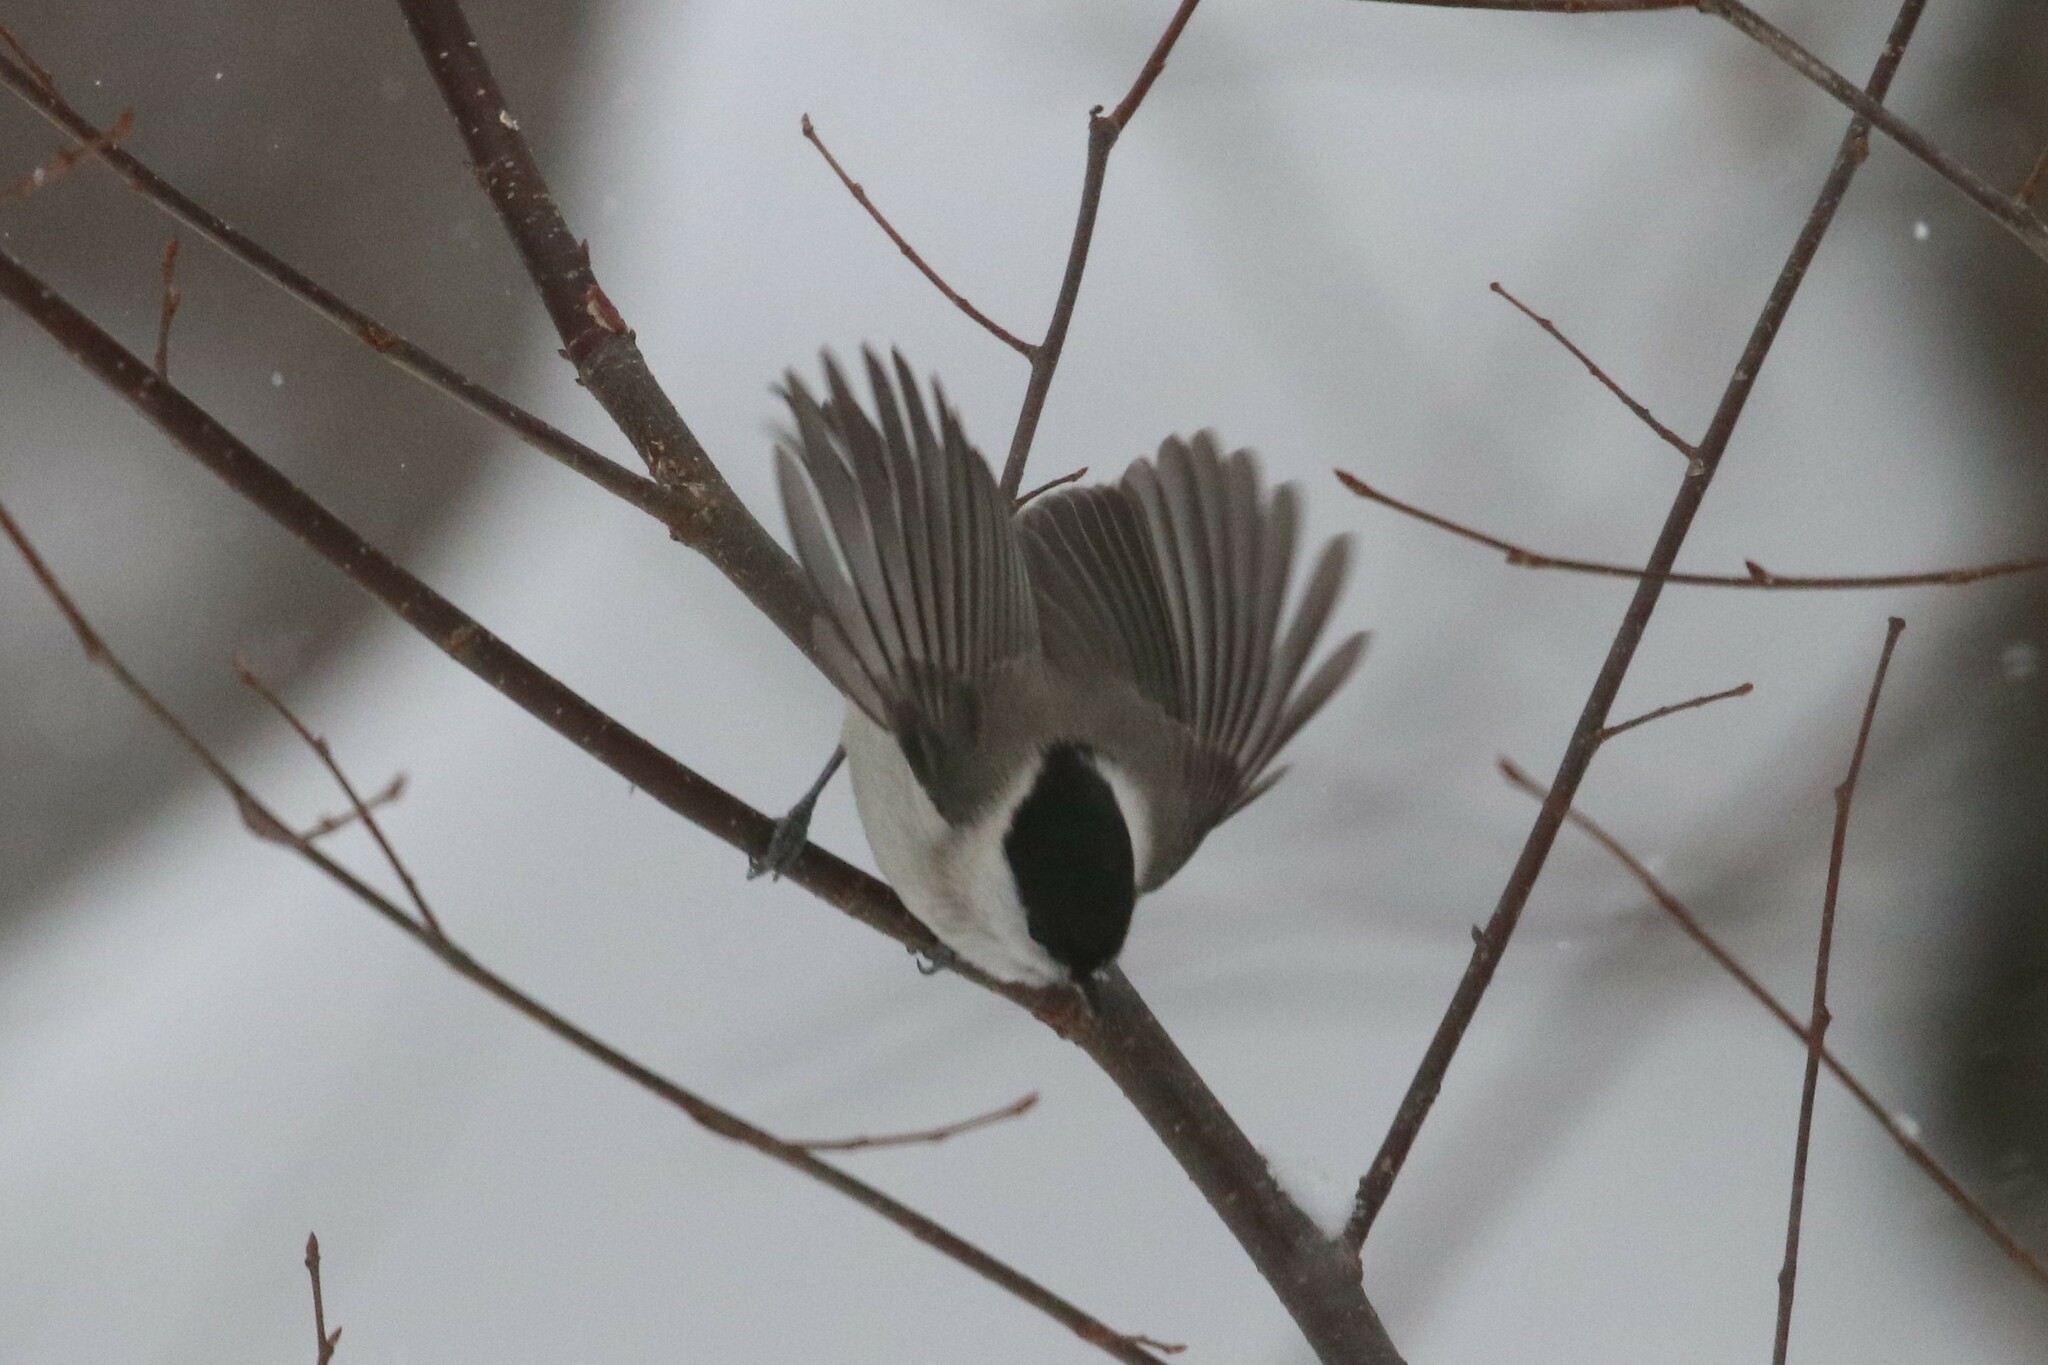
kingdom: Animalia
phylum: Chordata
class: Aves
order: Passeriformes
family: Paridae
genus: Poecile
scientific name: Poecile palustris
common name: Marsh tit
